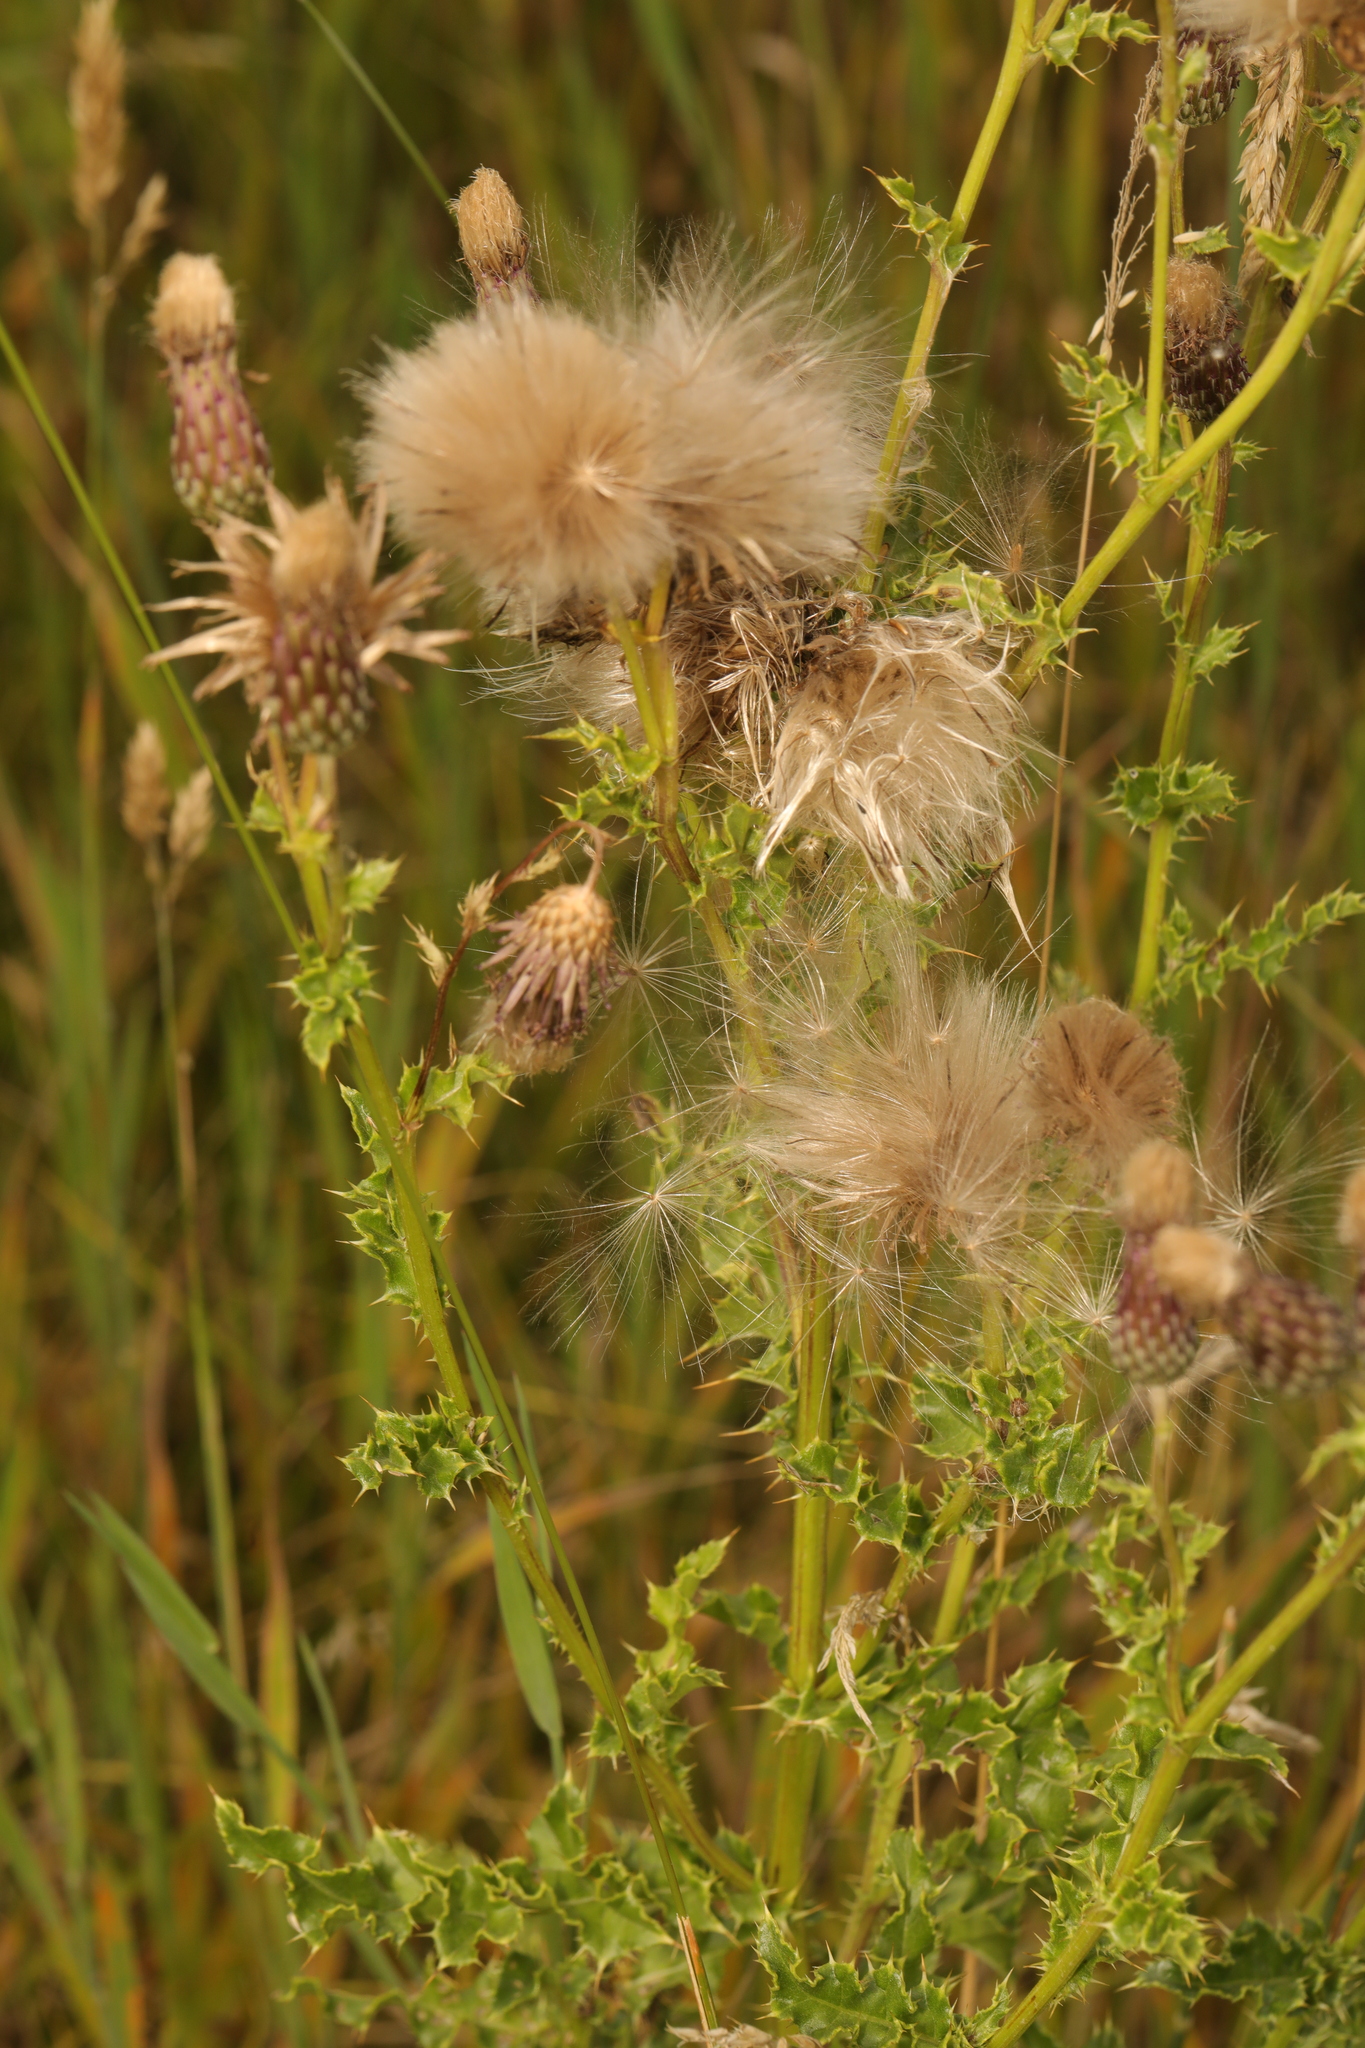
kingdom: Plantae
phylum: Tracheophyta
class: Magnoliopsida
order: Asterales
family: Asteraceae
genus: Cirsium
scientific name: Cirsium arvense
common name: Creeping thistle
